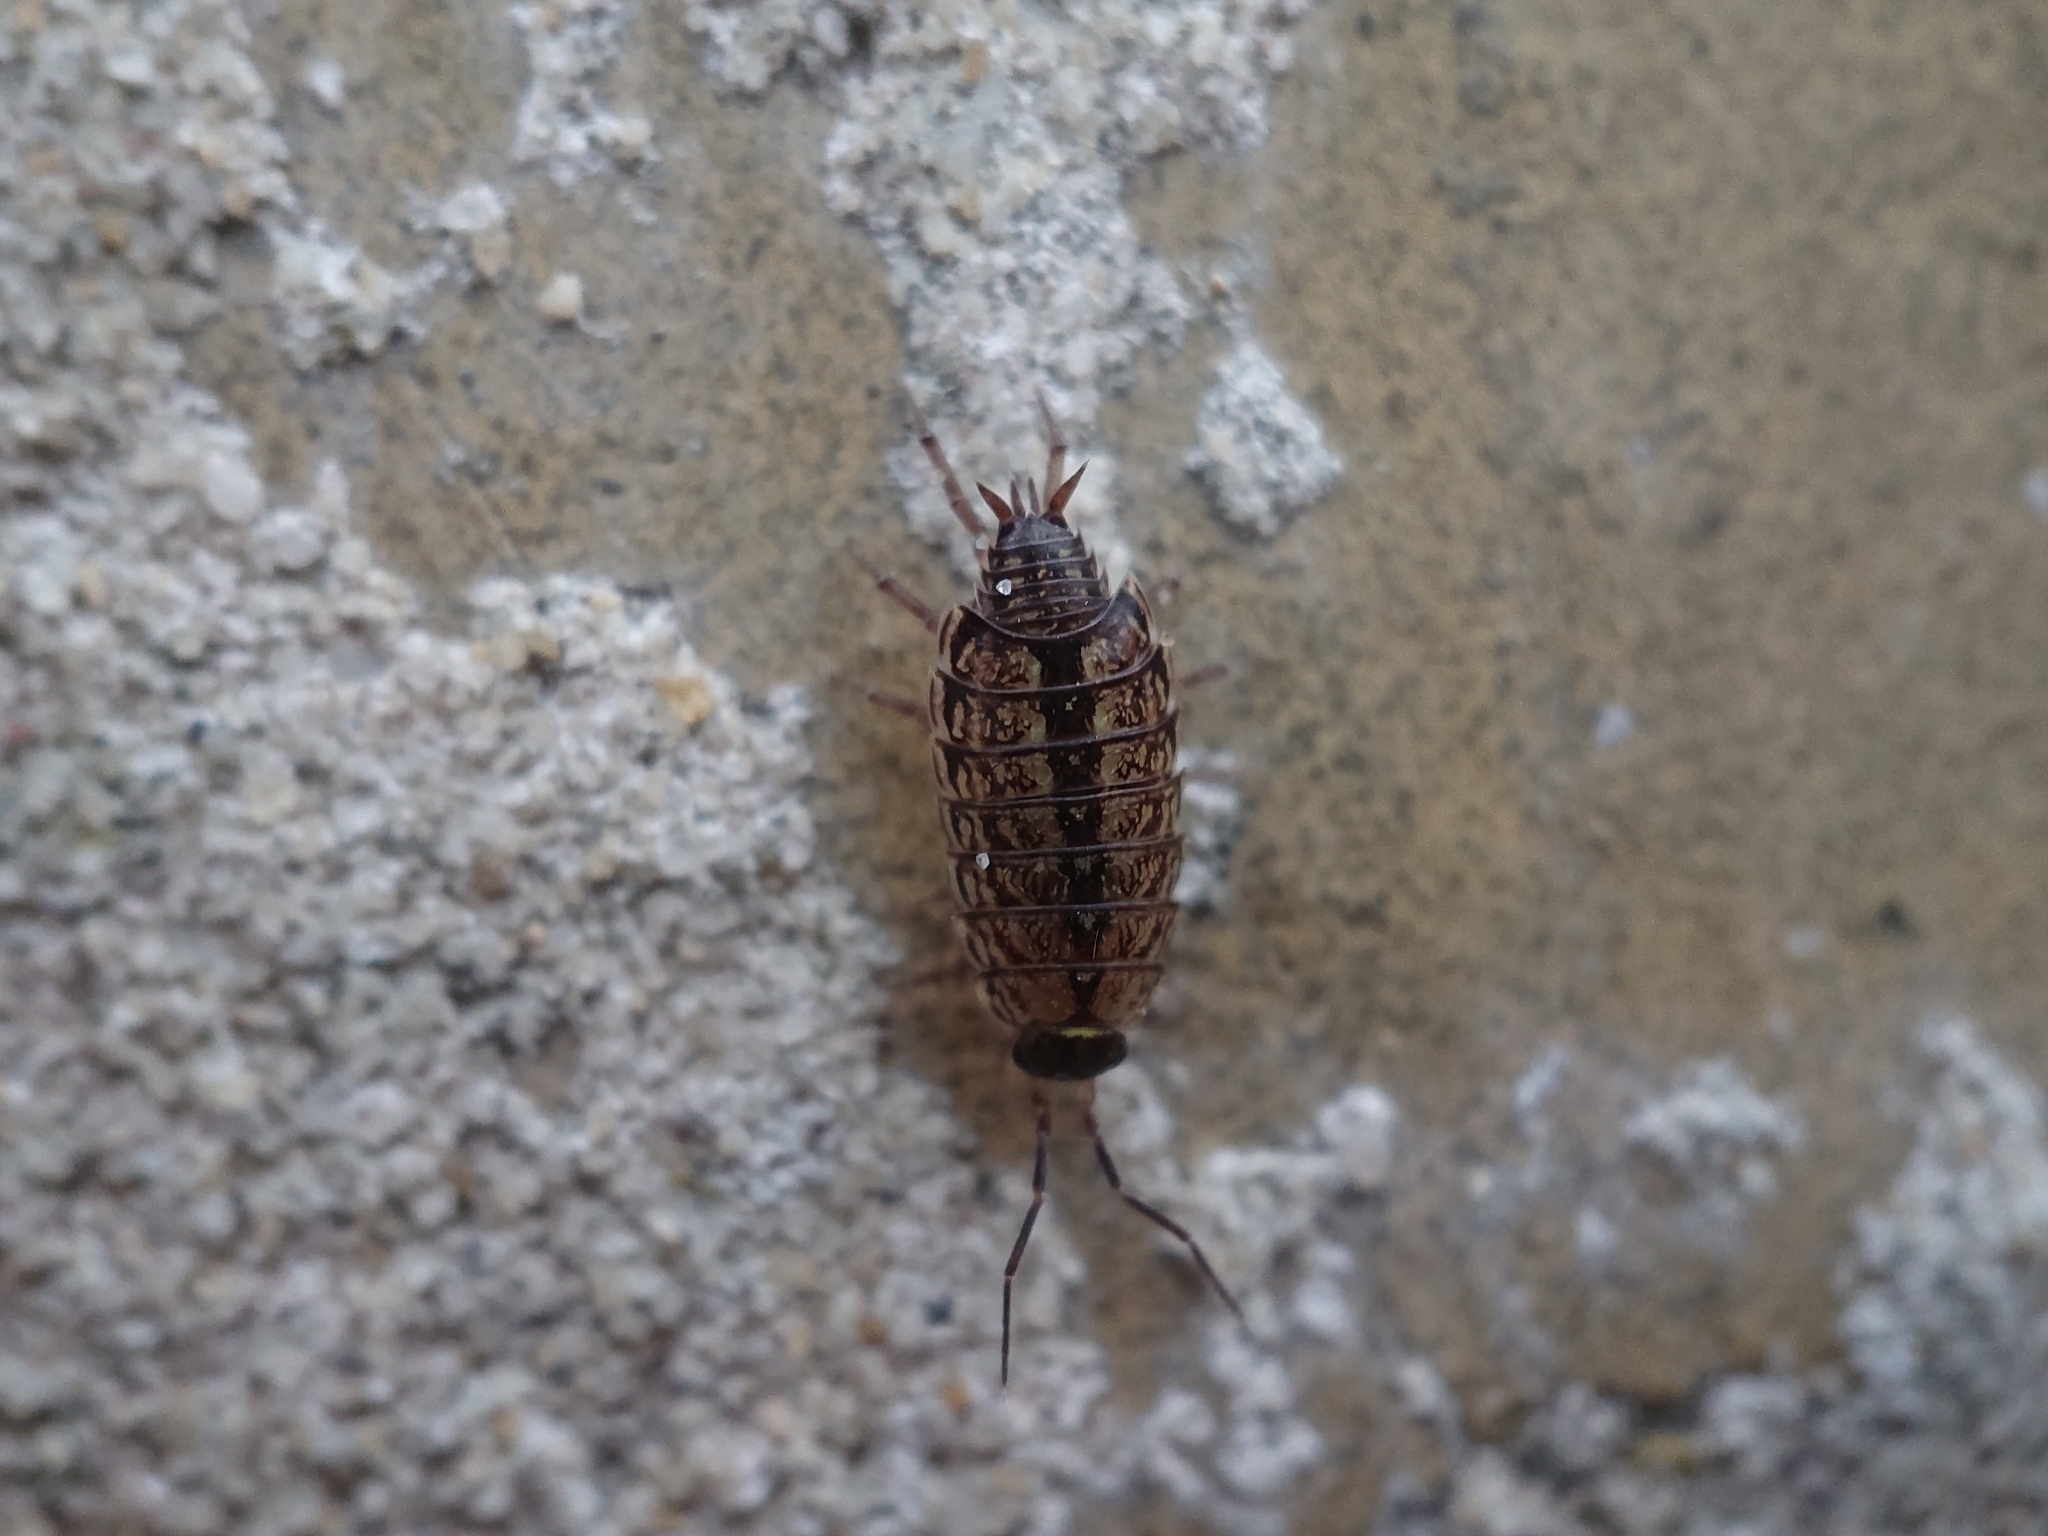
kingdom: Animalia
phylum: Arthropoda
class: Malacostraca
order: Isopoda
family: Philosciidae
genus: Philoscia
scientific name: Philoscia muscorum
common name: Common striped woodlouse
